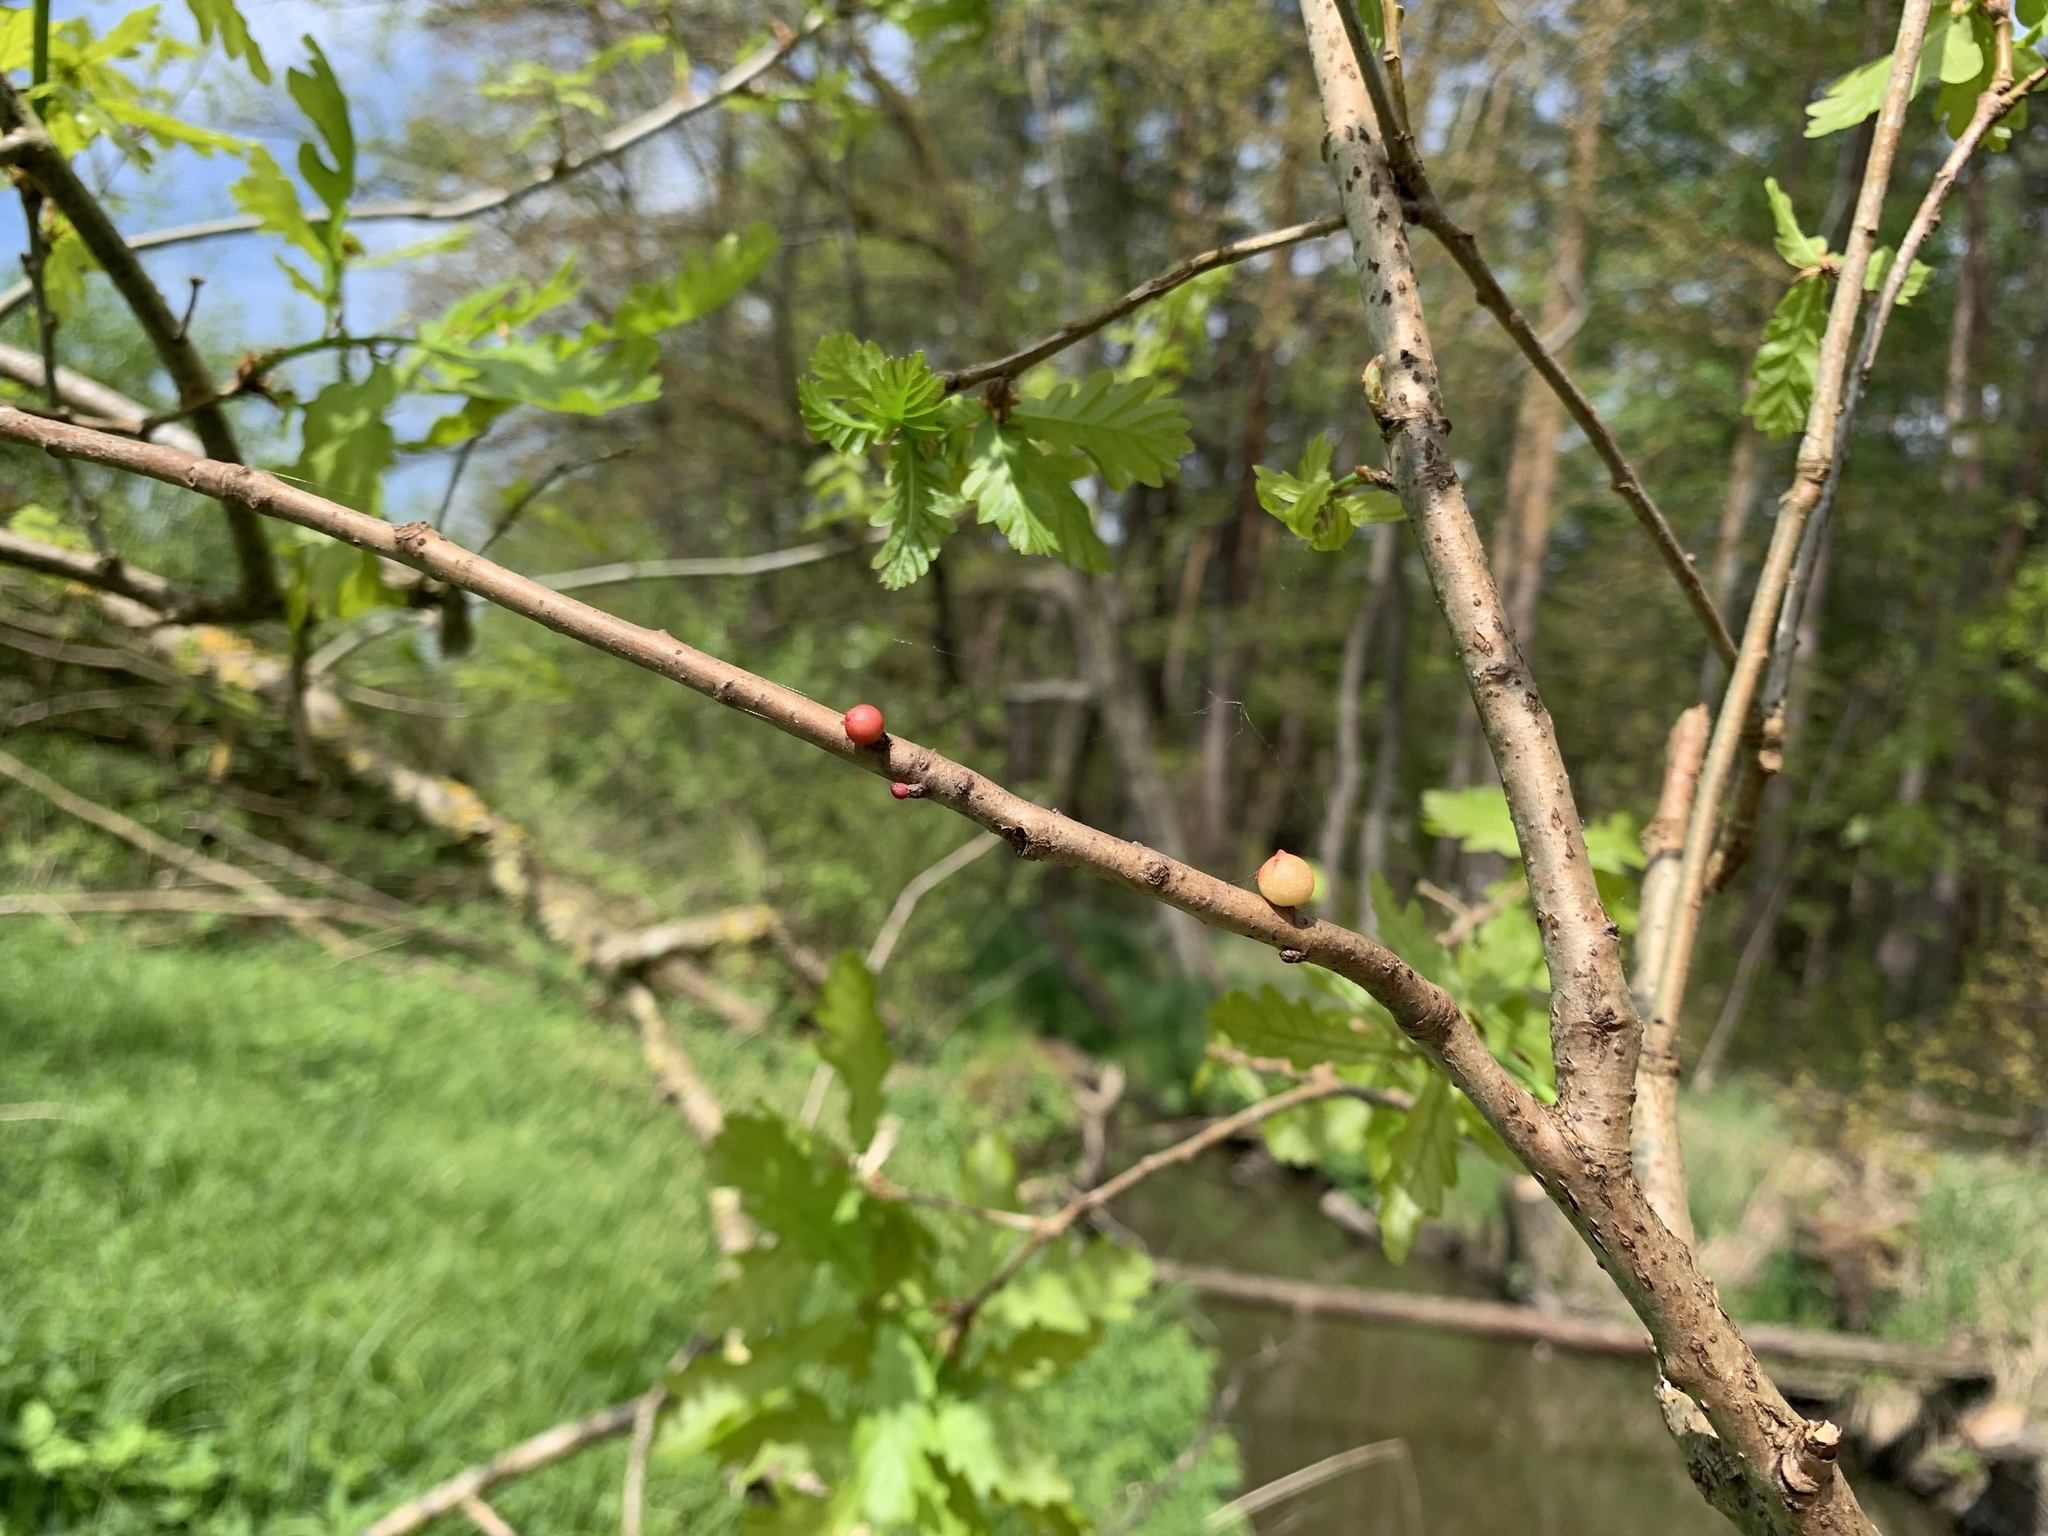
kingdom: Animalia
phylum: Arthropoda
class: Insecta
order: Hymenoptera
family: Cynipidae
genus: Trigonaspis
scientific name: Trigonaspis megaptera
